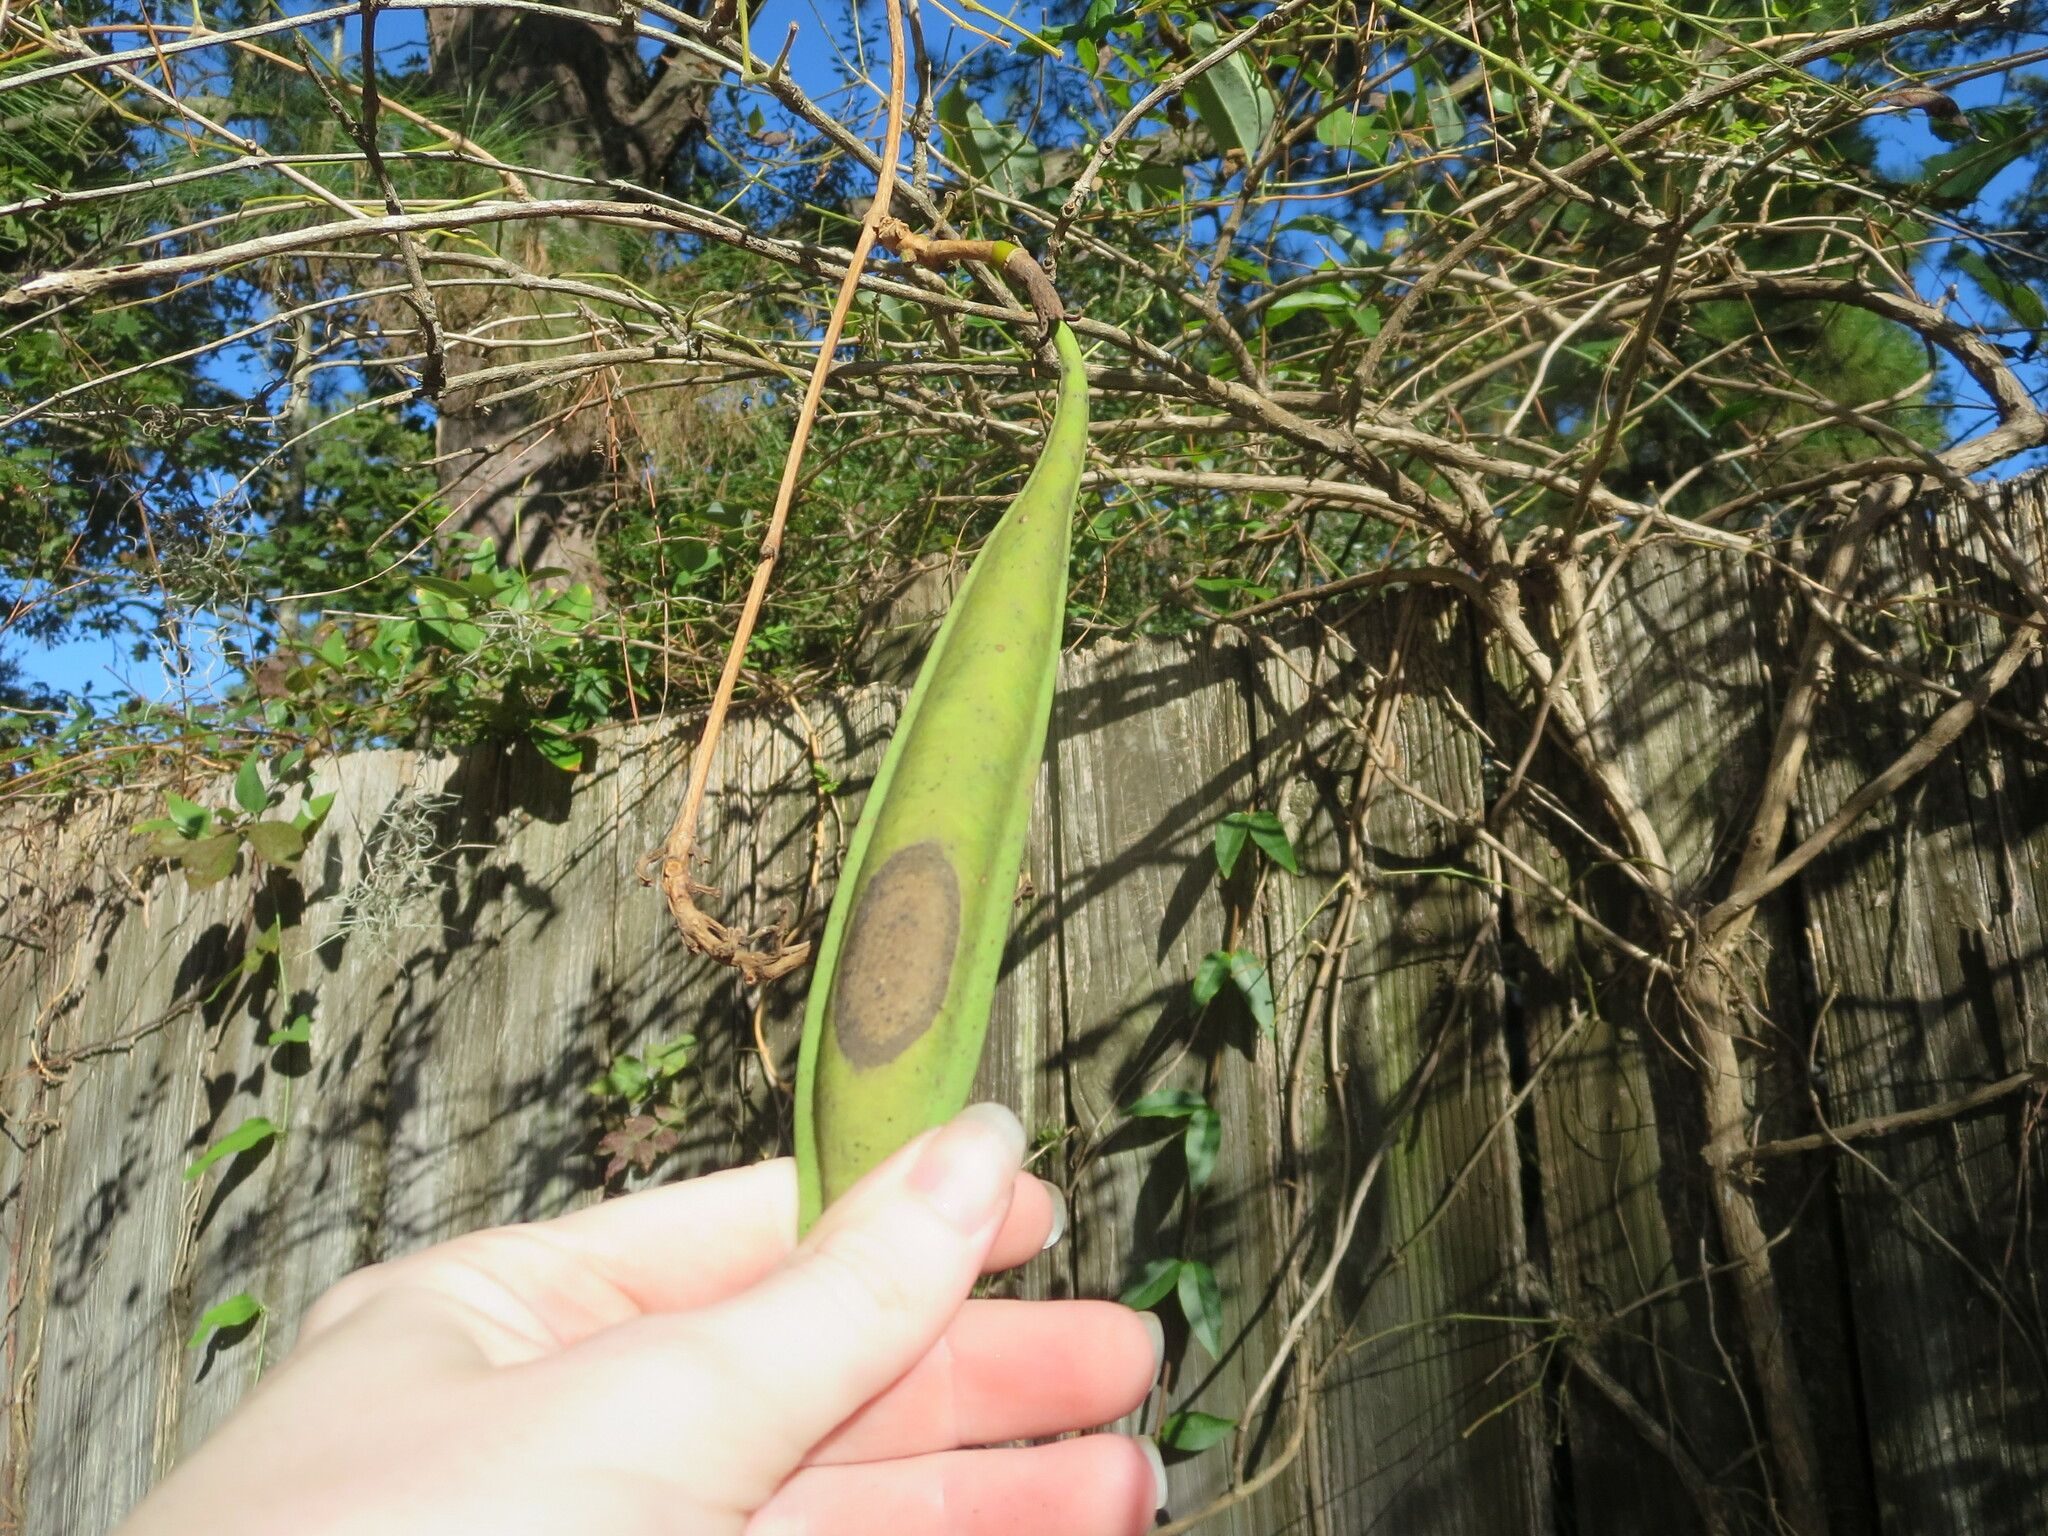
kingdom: Plantae
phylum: Tracheophyta
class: Magnoliopsida
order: Lamiales
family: Bignoniaceae
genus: Campsis
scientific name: Campsis radicans
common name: Trumpet-creeper
